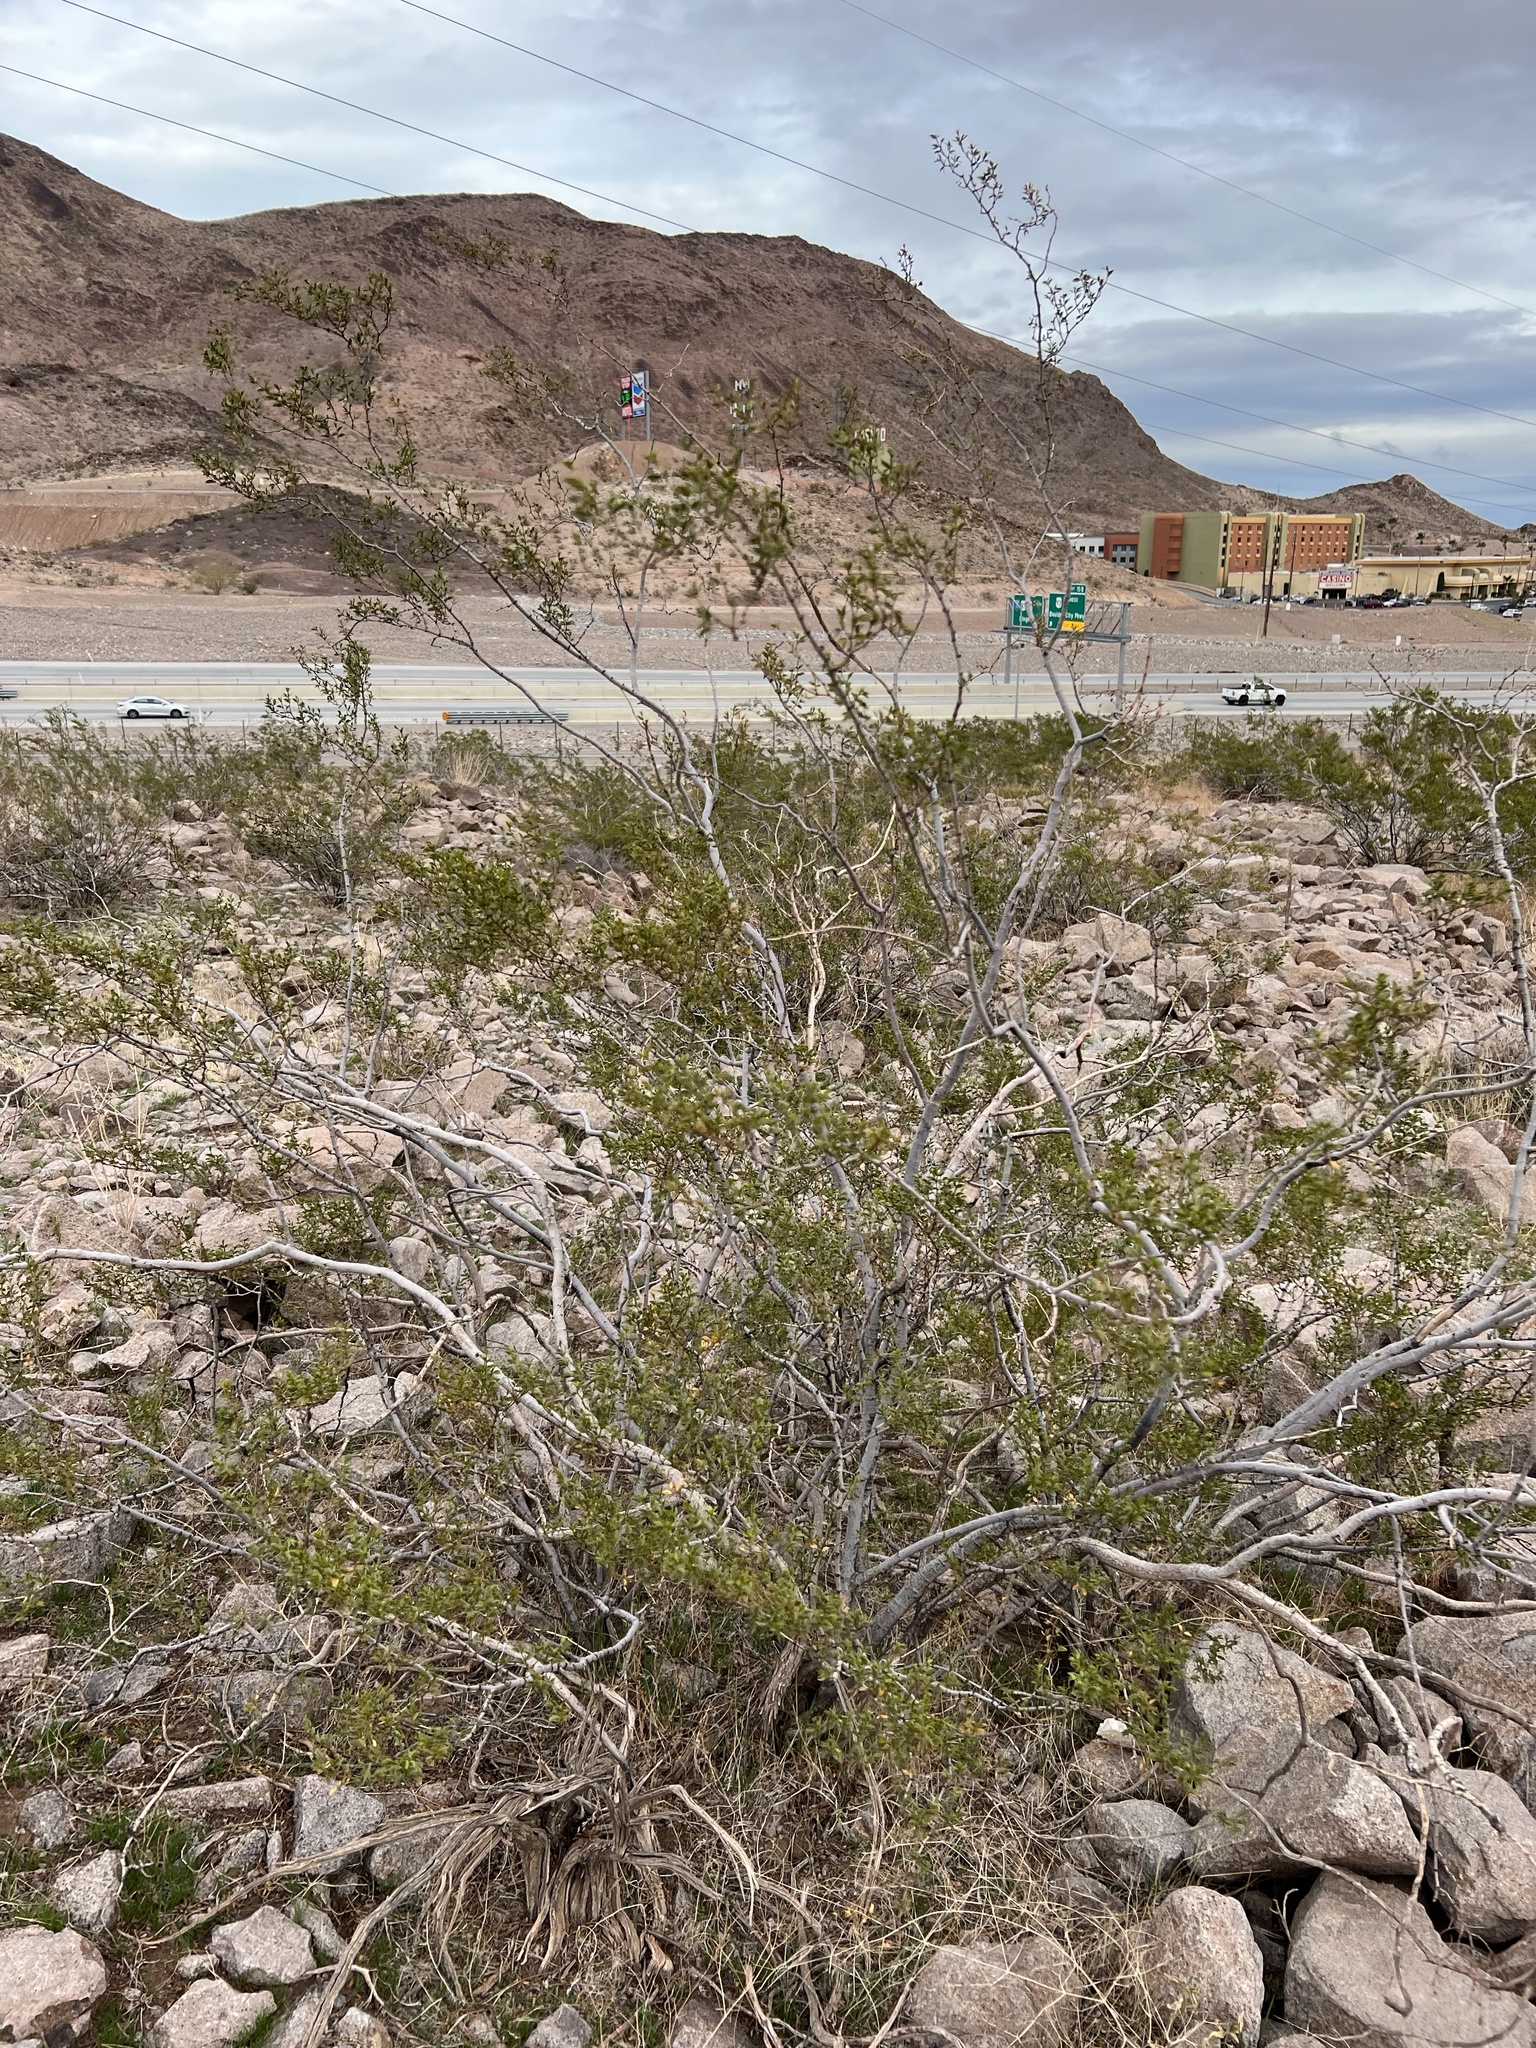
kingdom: Plantae
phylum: Tracheophyta
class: Magnoliopsida
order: Zygophyllales
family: Zygophyllaceae
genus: Larrea
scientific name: Larrea tridentata
